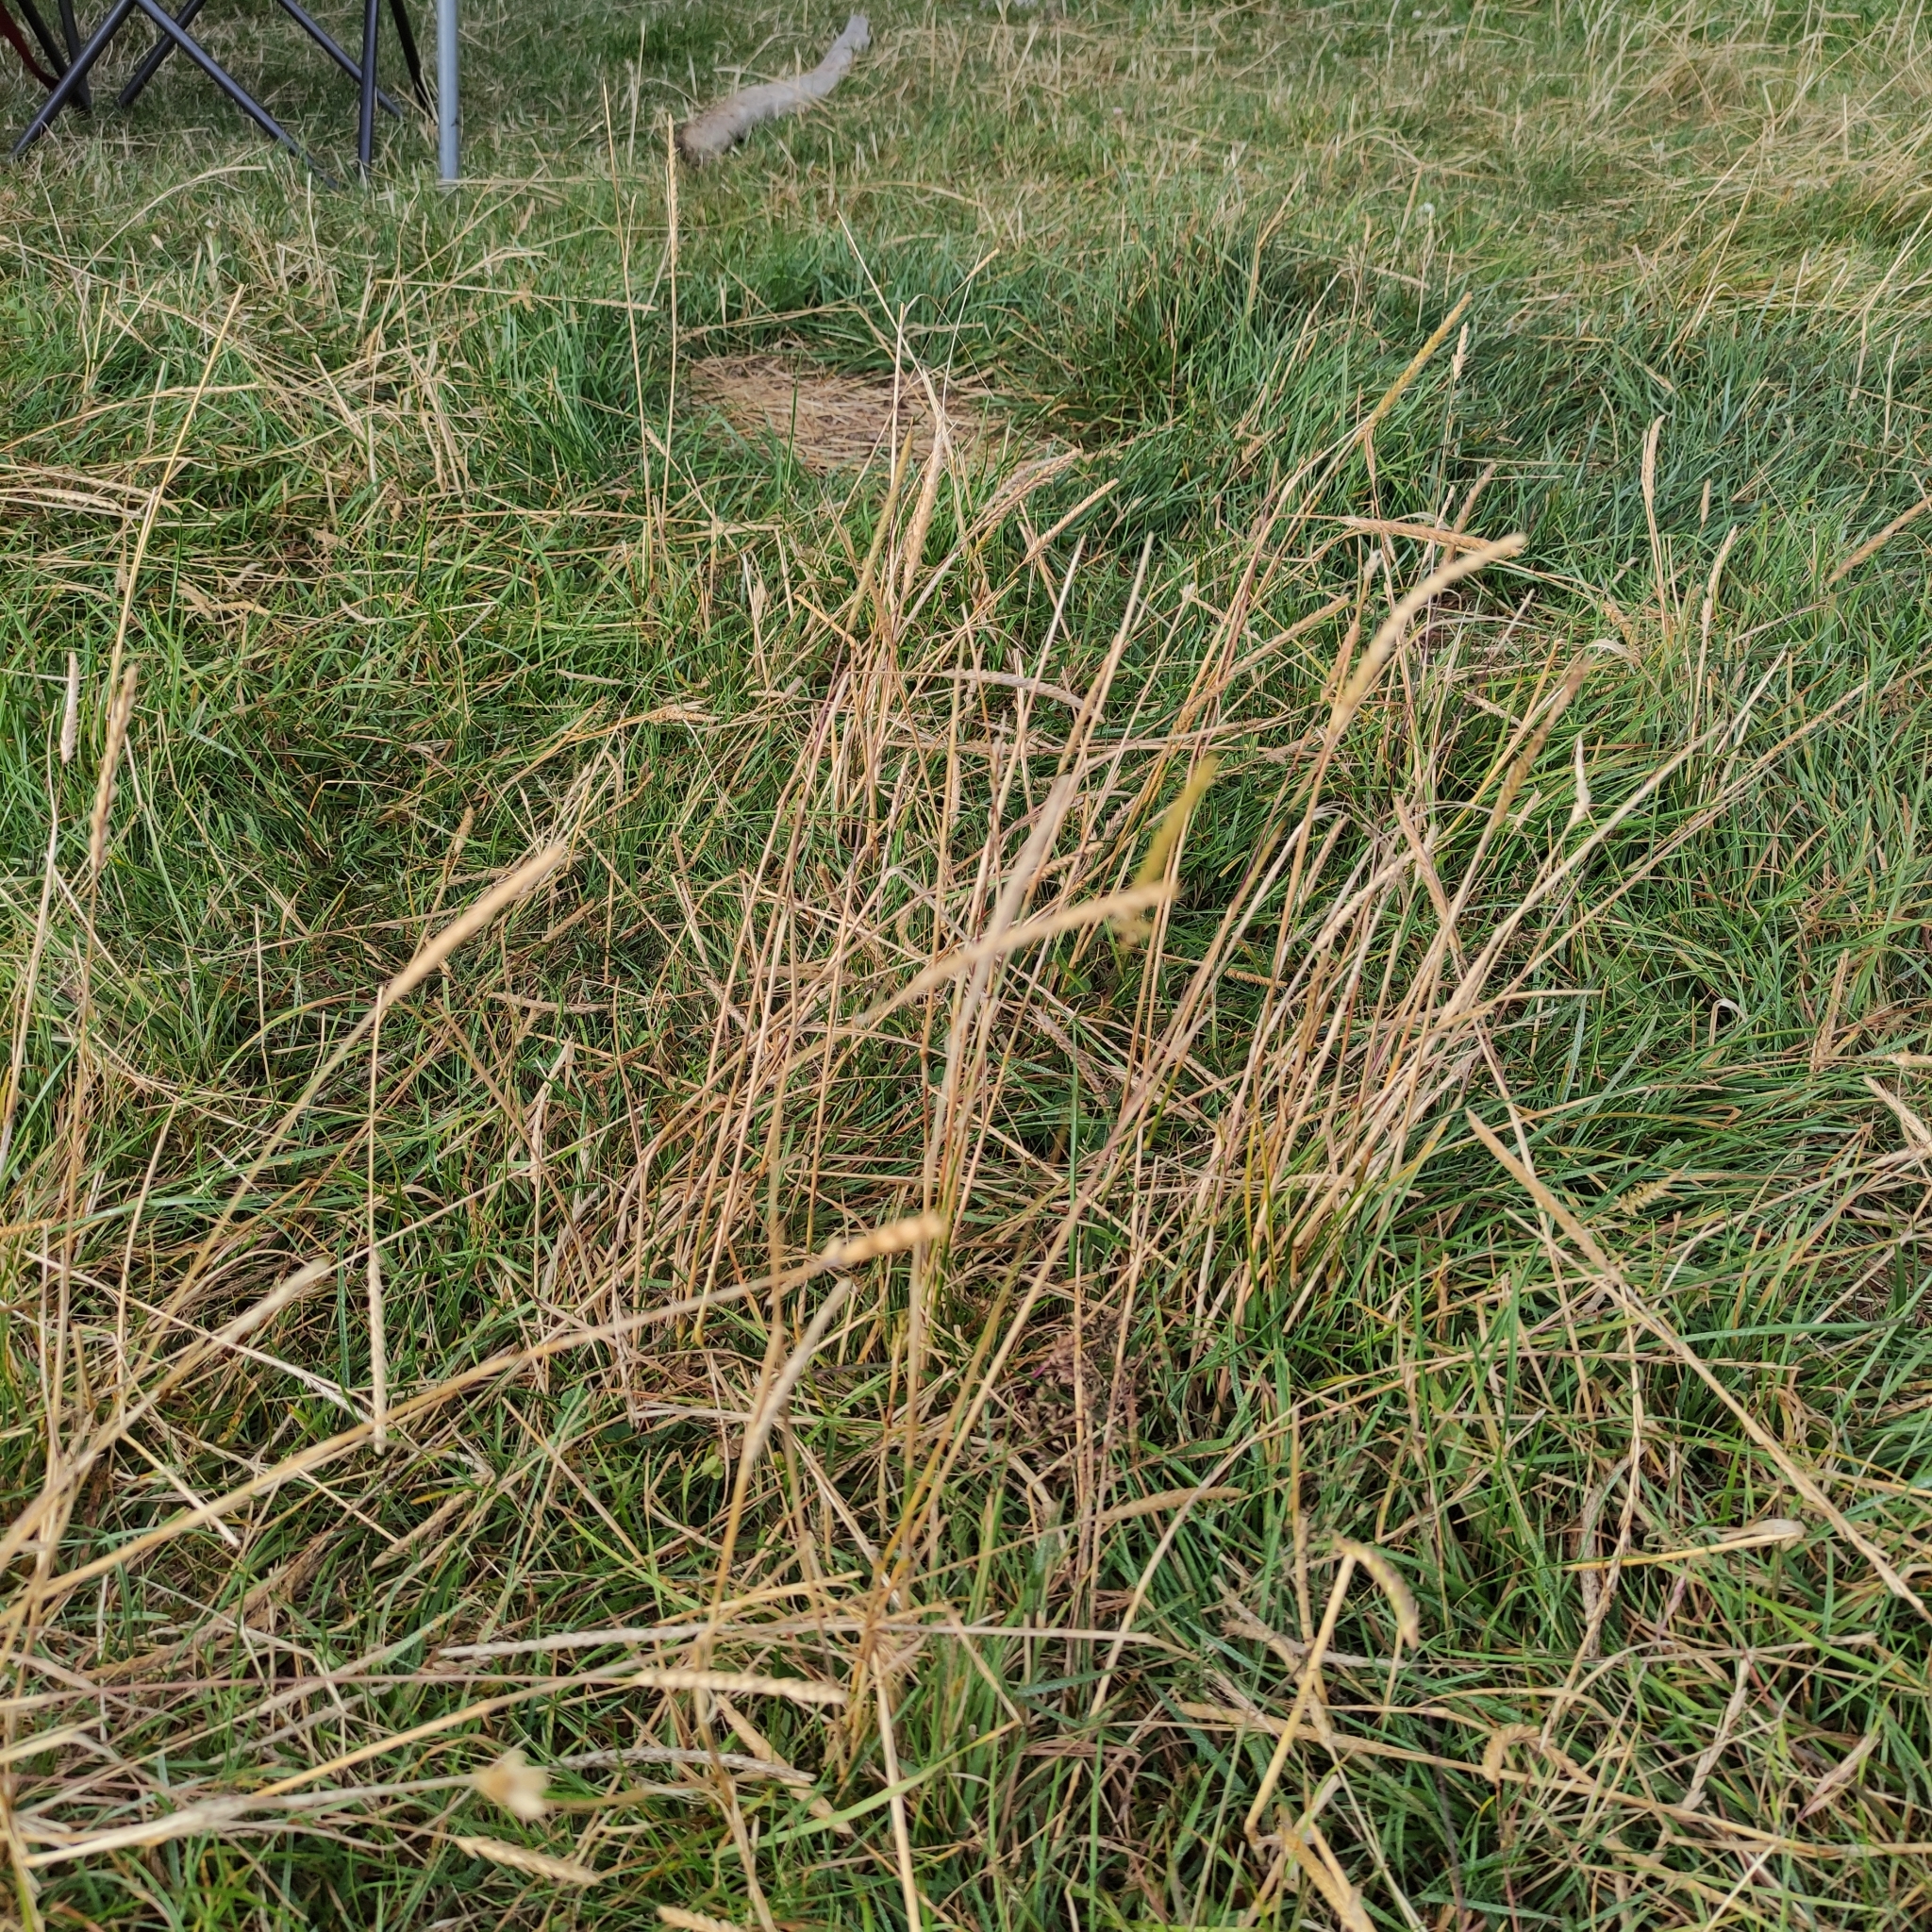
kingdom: Plantae
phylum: Tracheophyta
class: Liliopsida
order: Poales
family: Poaceae
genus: Cynosurus
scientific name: Cynosurus cristatus
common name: Crested dog's-tail
